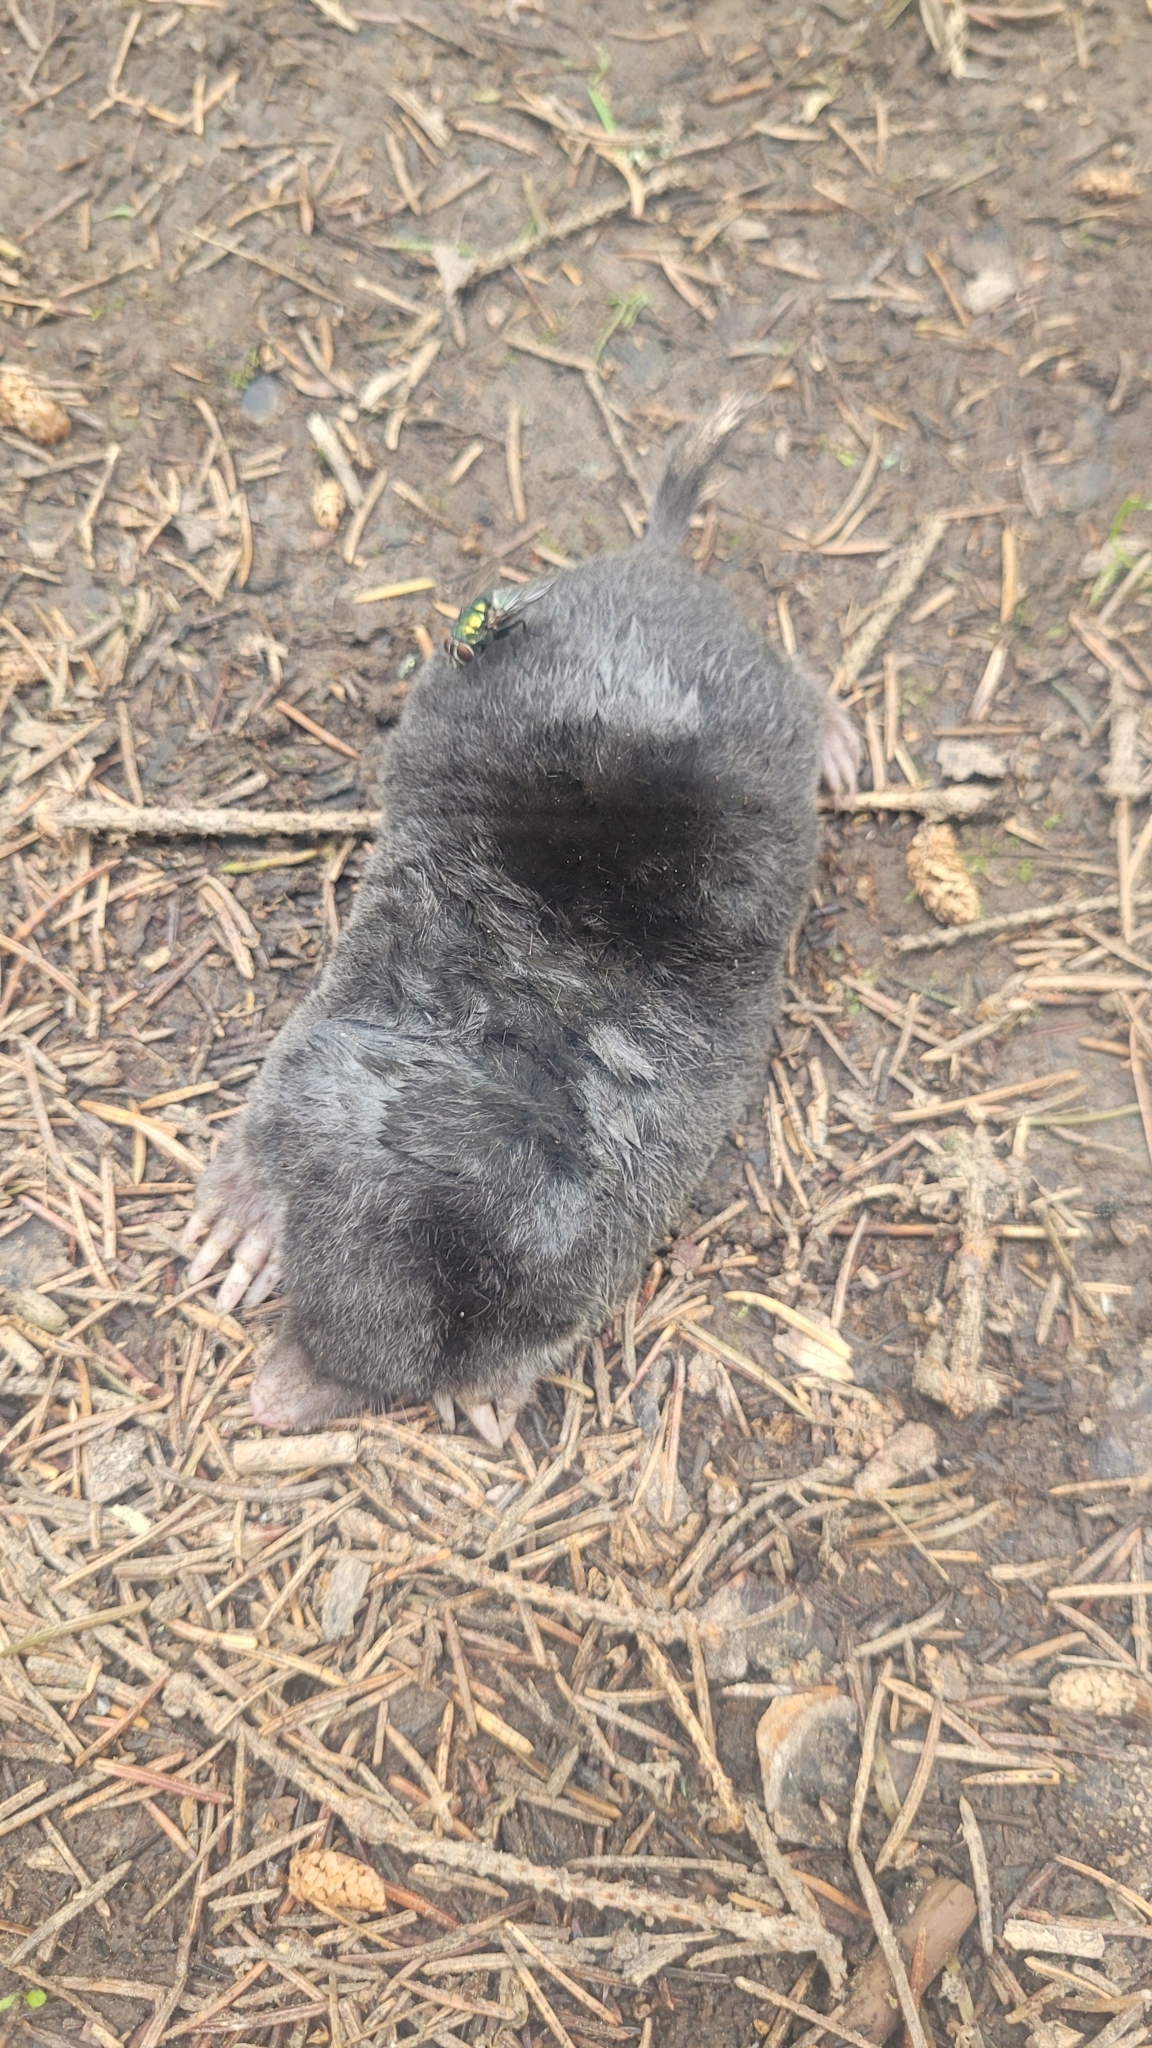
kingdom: Animalia
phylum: Chordata
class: Mammalia
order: Soricomorpha
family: Talpidae
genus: Talpa
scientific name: Talpa europaea
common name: European mole
